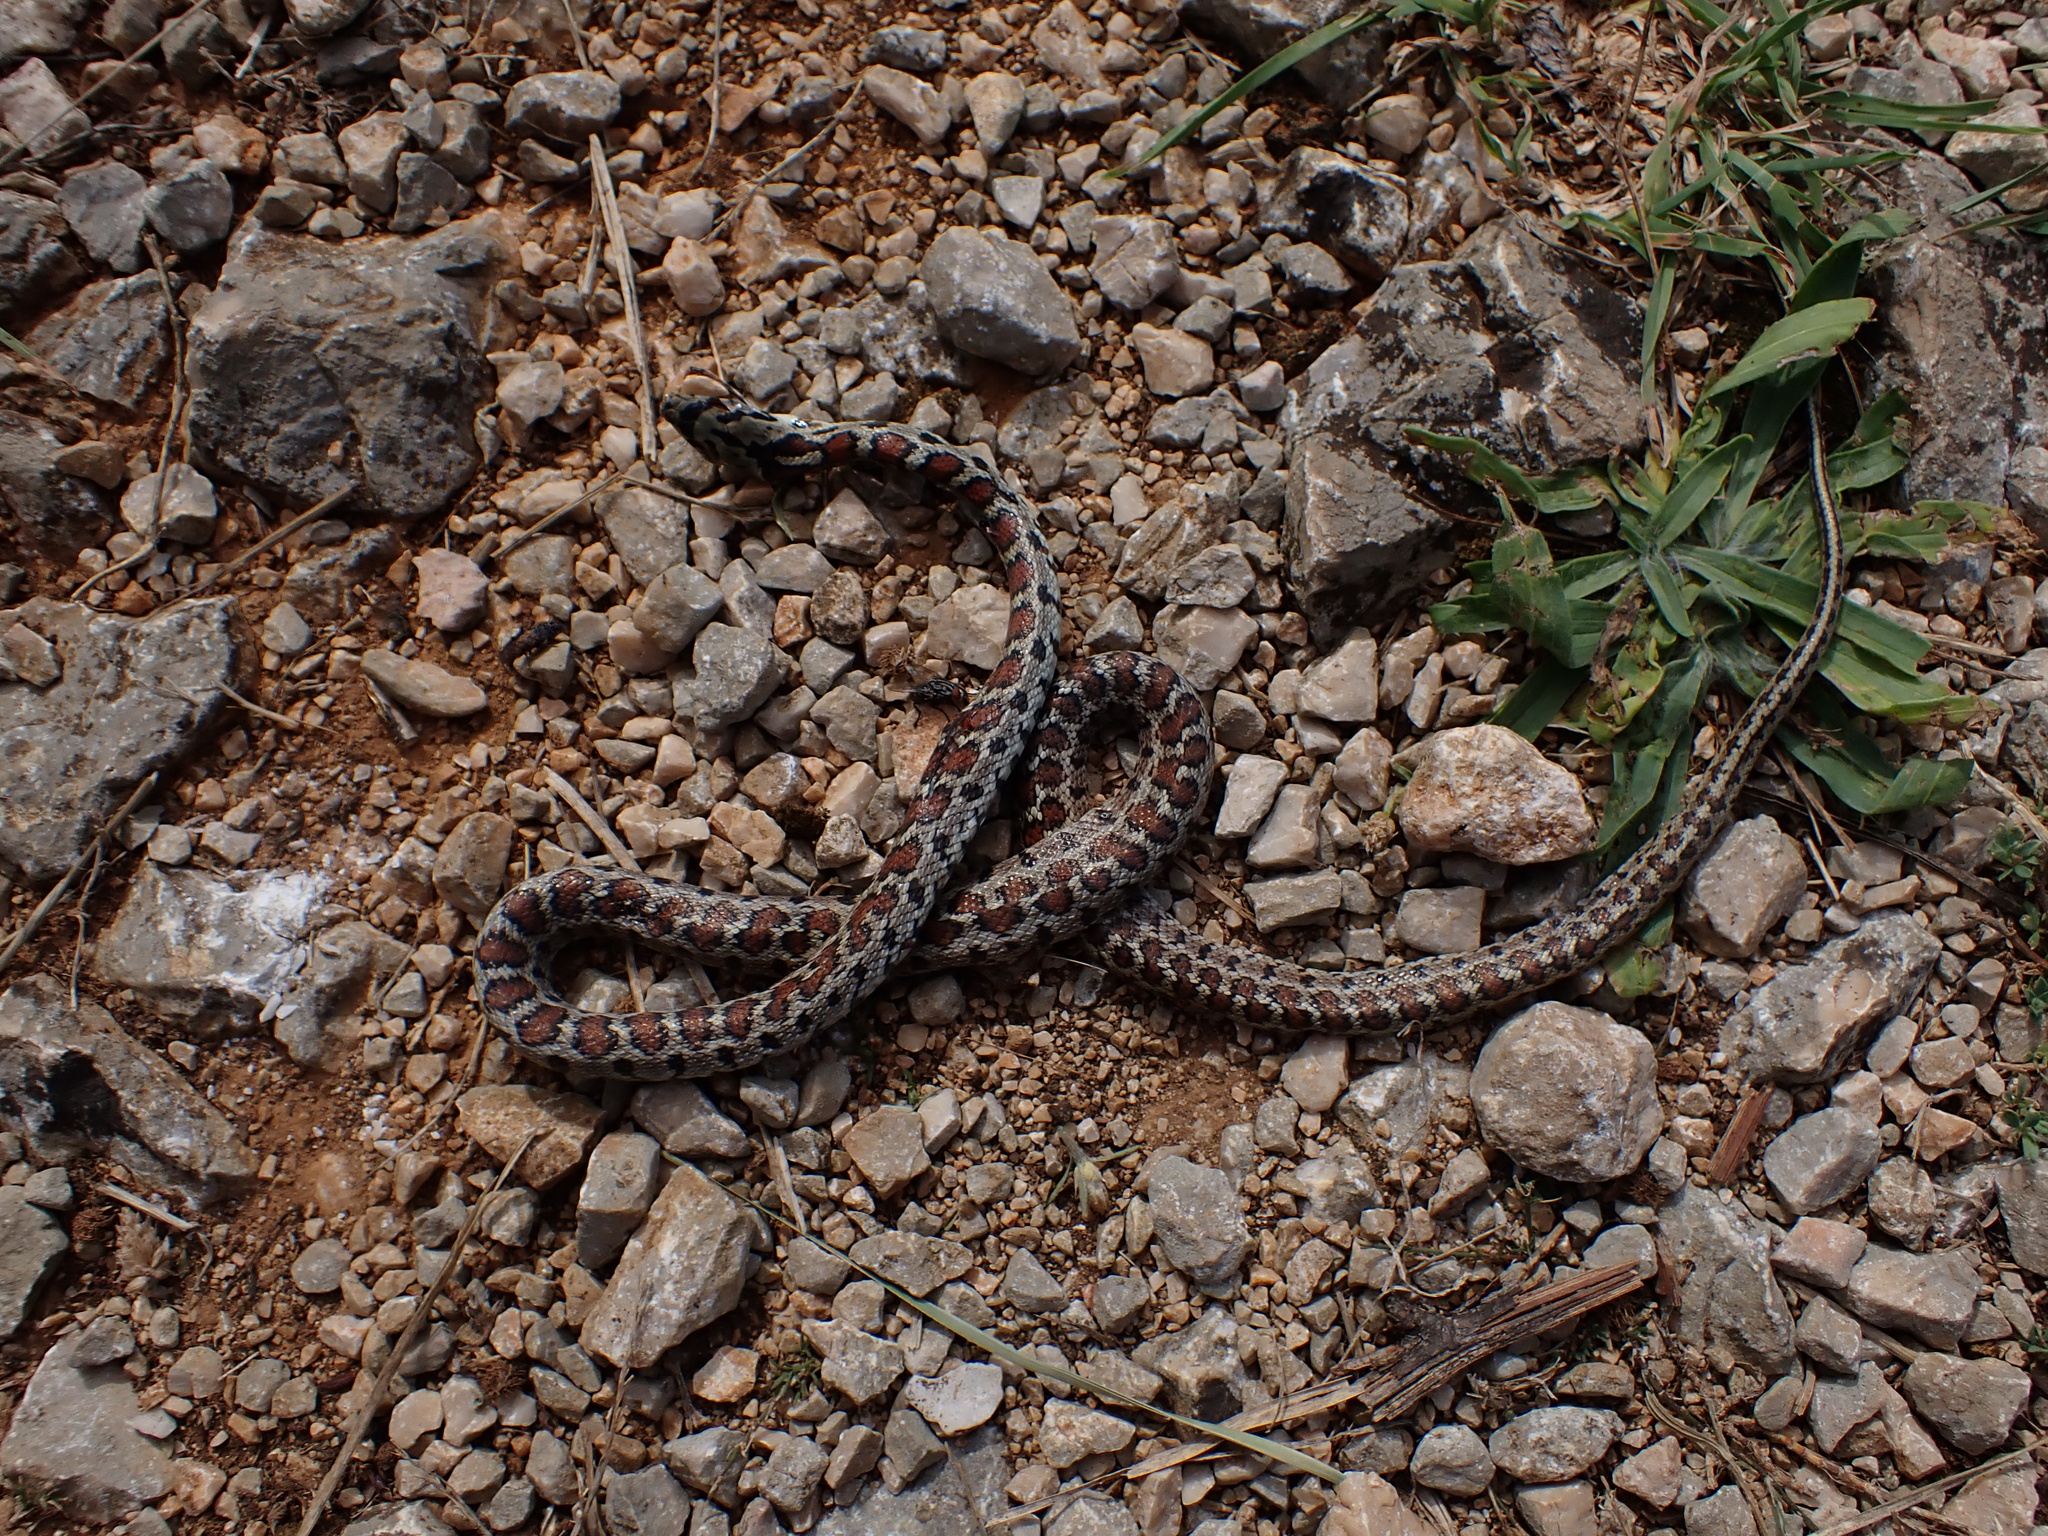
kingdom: Animalia
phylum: Chordata
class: Squamata
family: Colubridae
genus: Zamenis
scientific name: Zamenis situla
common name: European ratsnake
